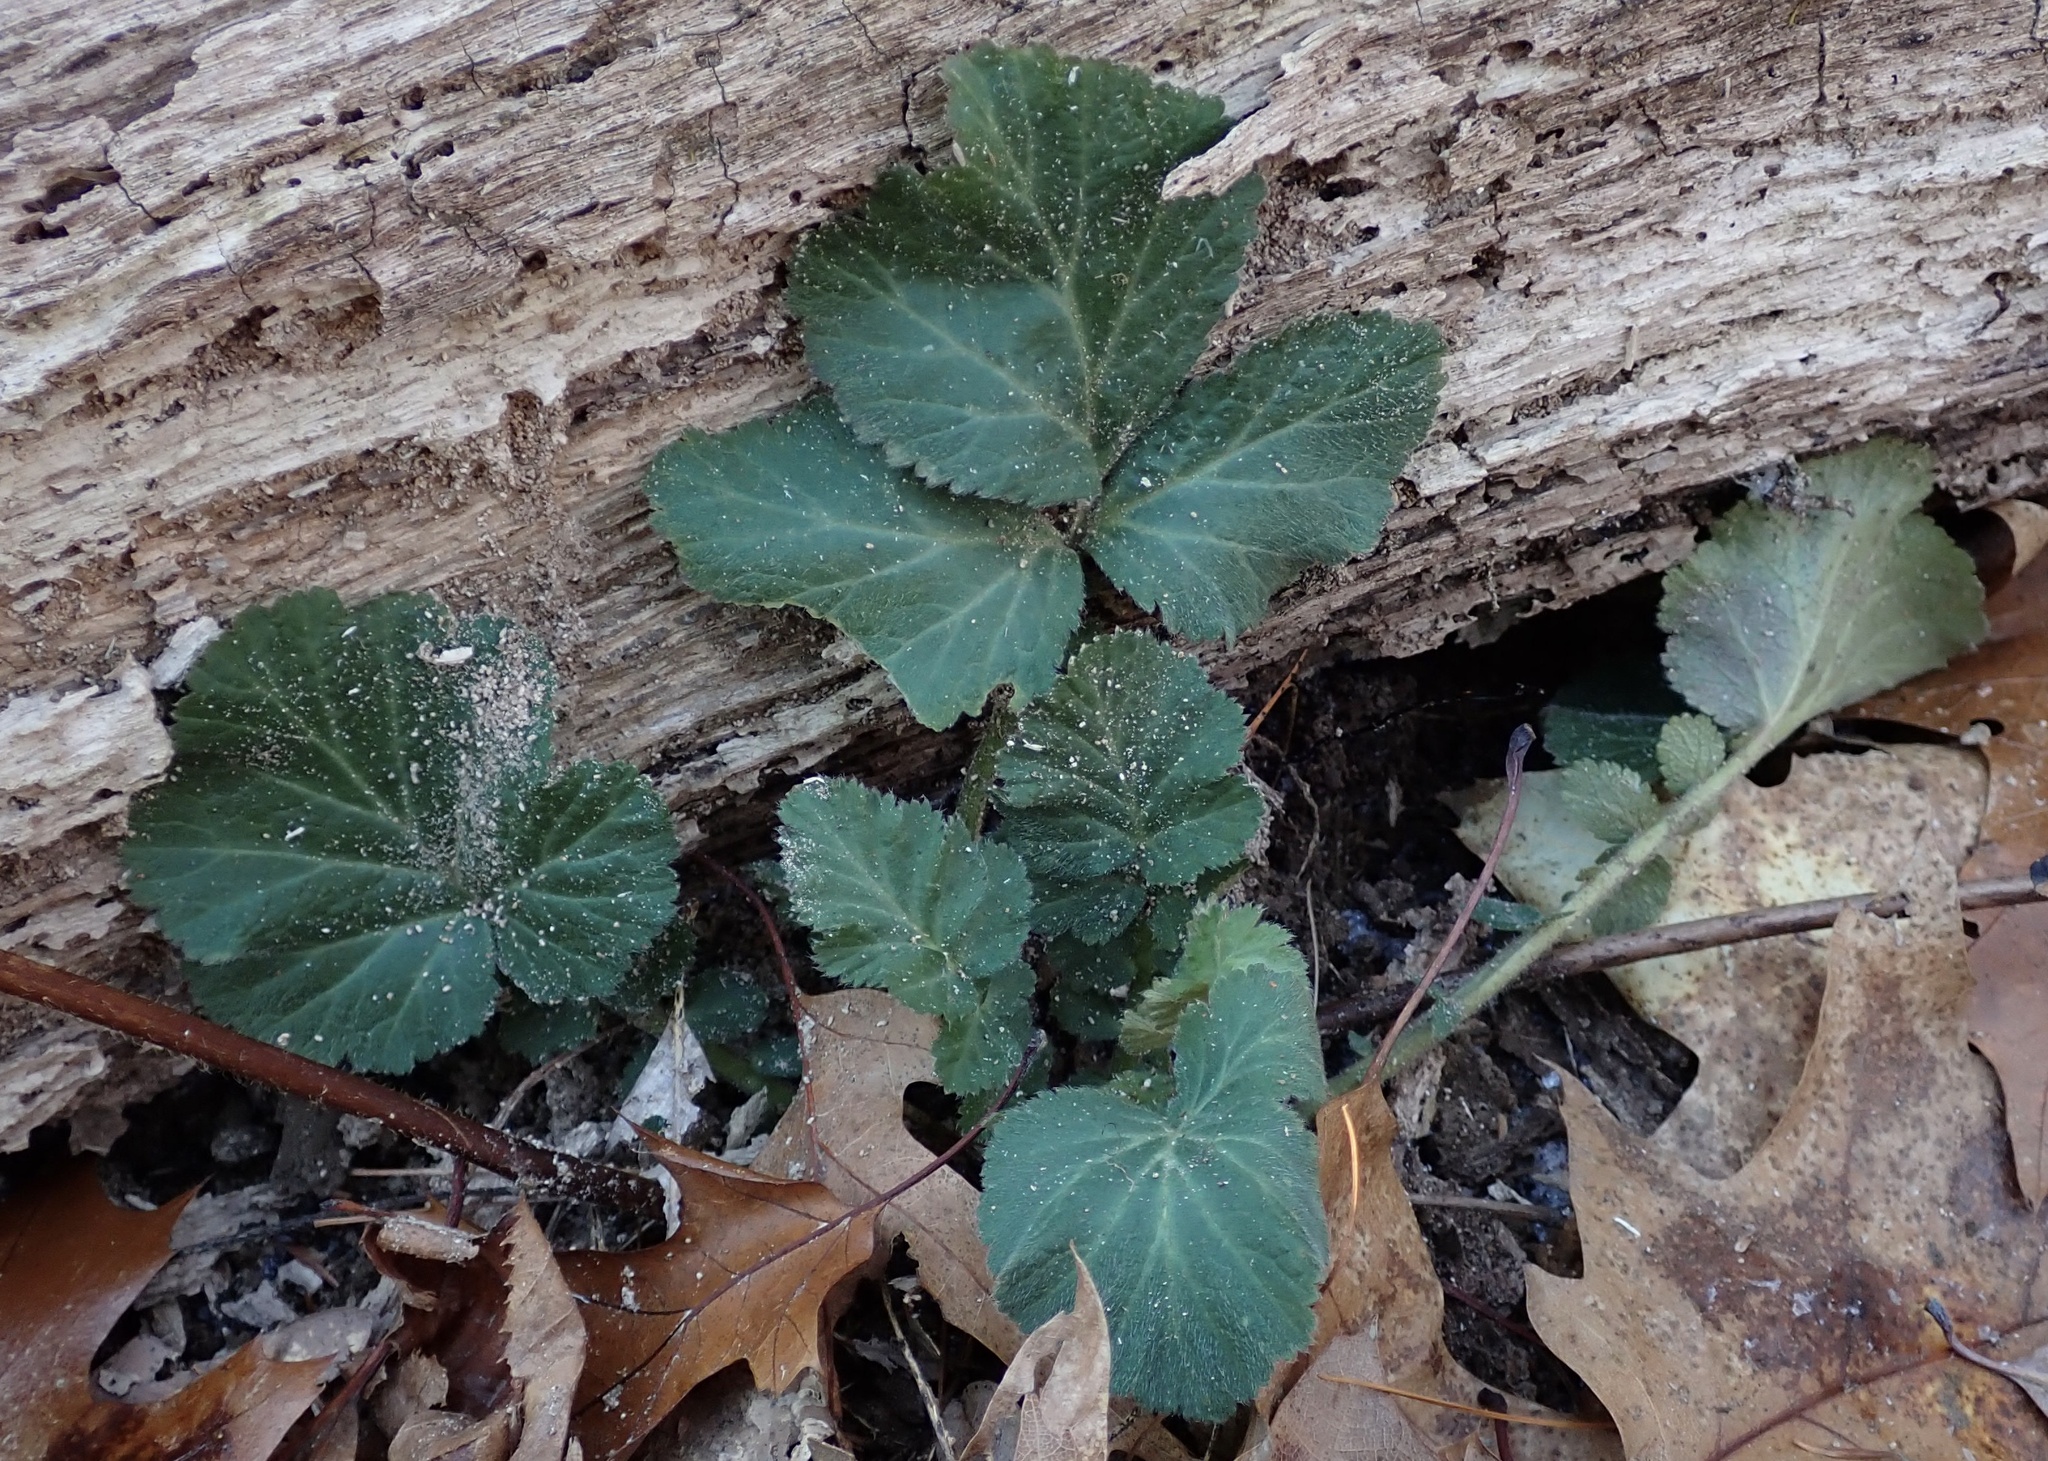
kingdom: Plantae
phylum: Tracheophyta
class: Magnoliopsida
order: Rosales
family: Rosaceae
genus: Geum
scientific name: Geum canadense
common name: White avens
